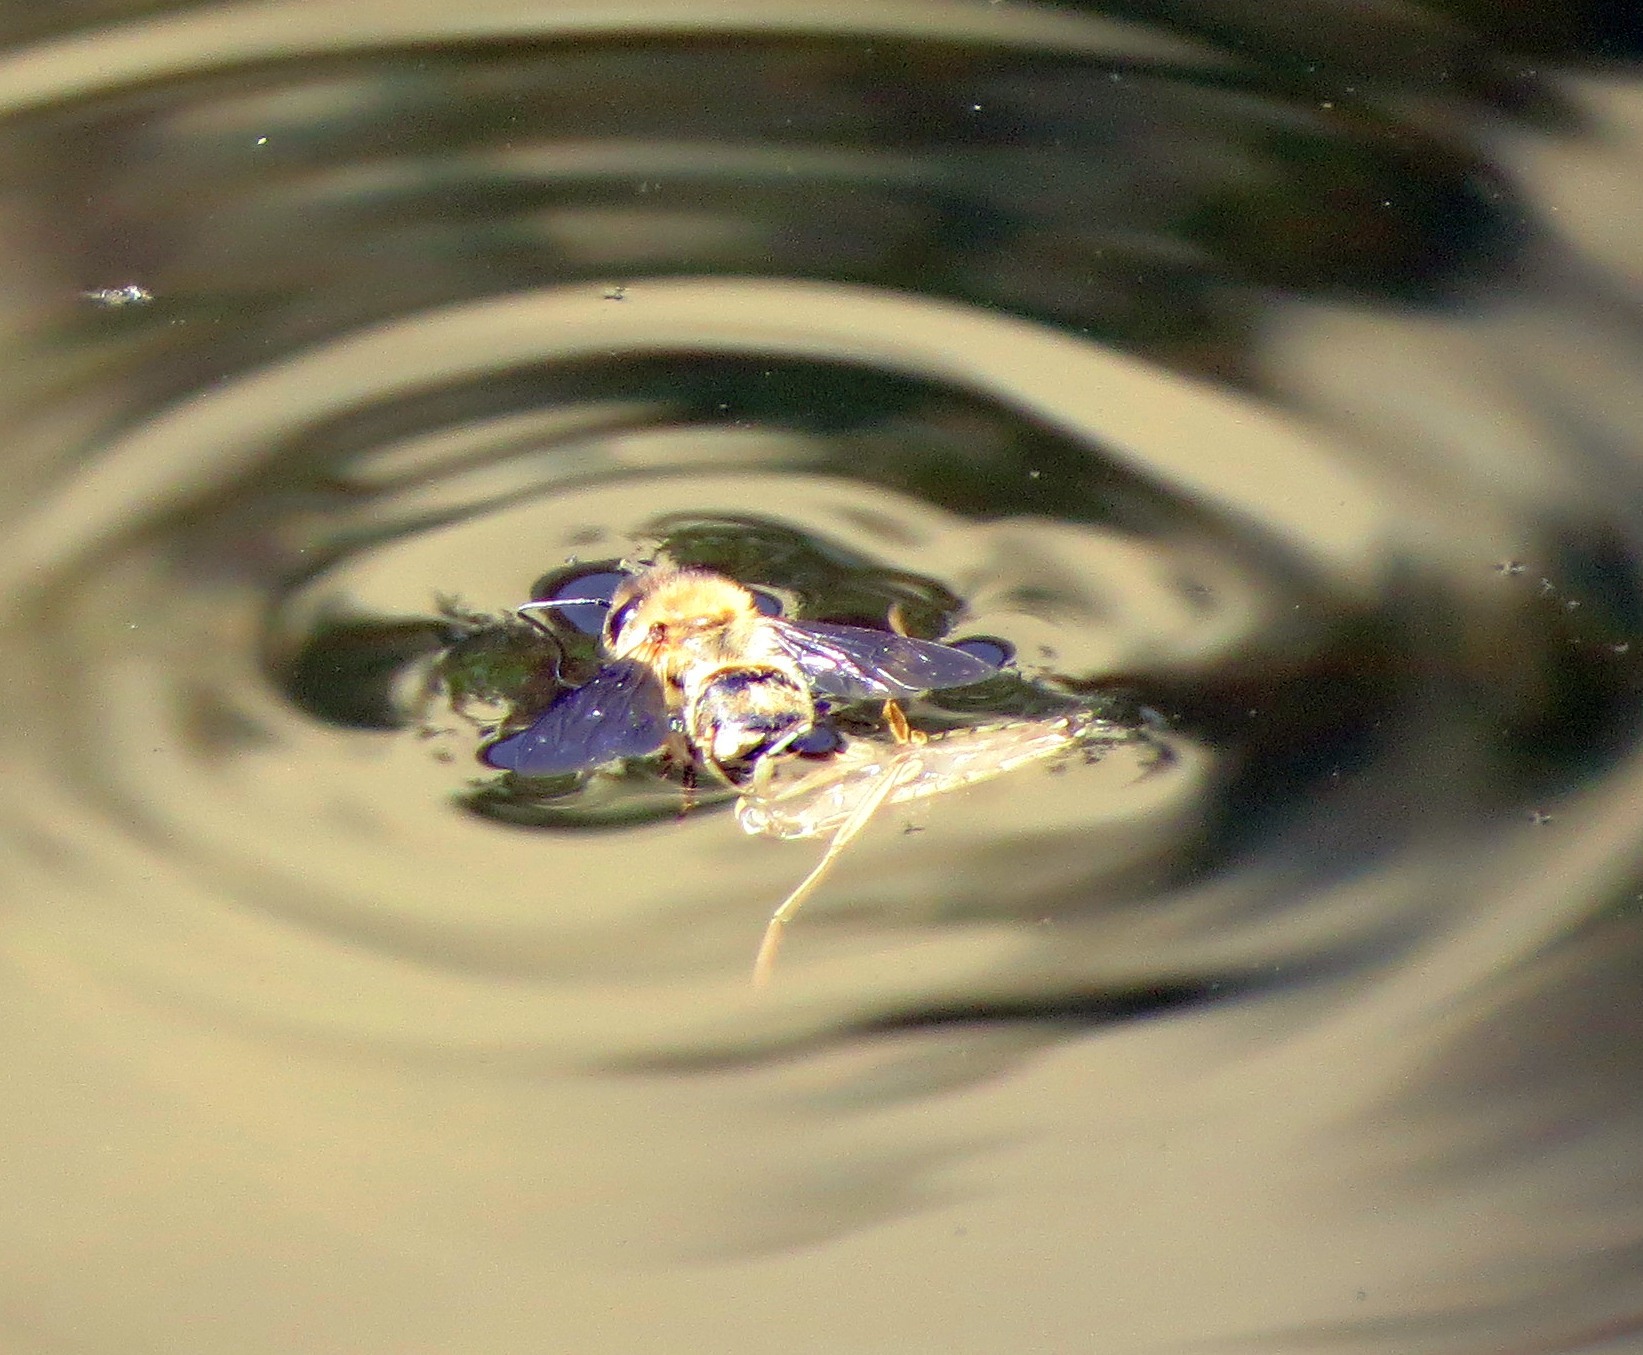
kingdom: Animalia
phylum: Arthropoda
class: Insecta
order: Hemiptera
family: Notonectidae
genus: Notonecta
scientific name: Notonecta
